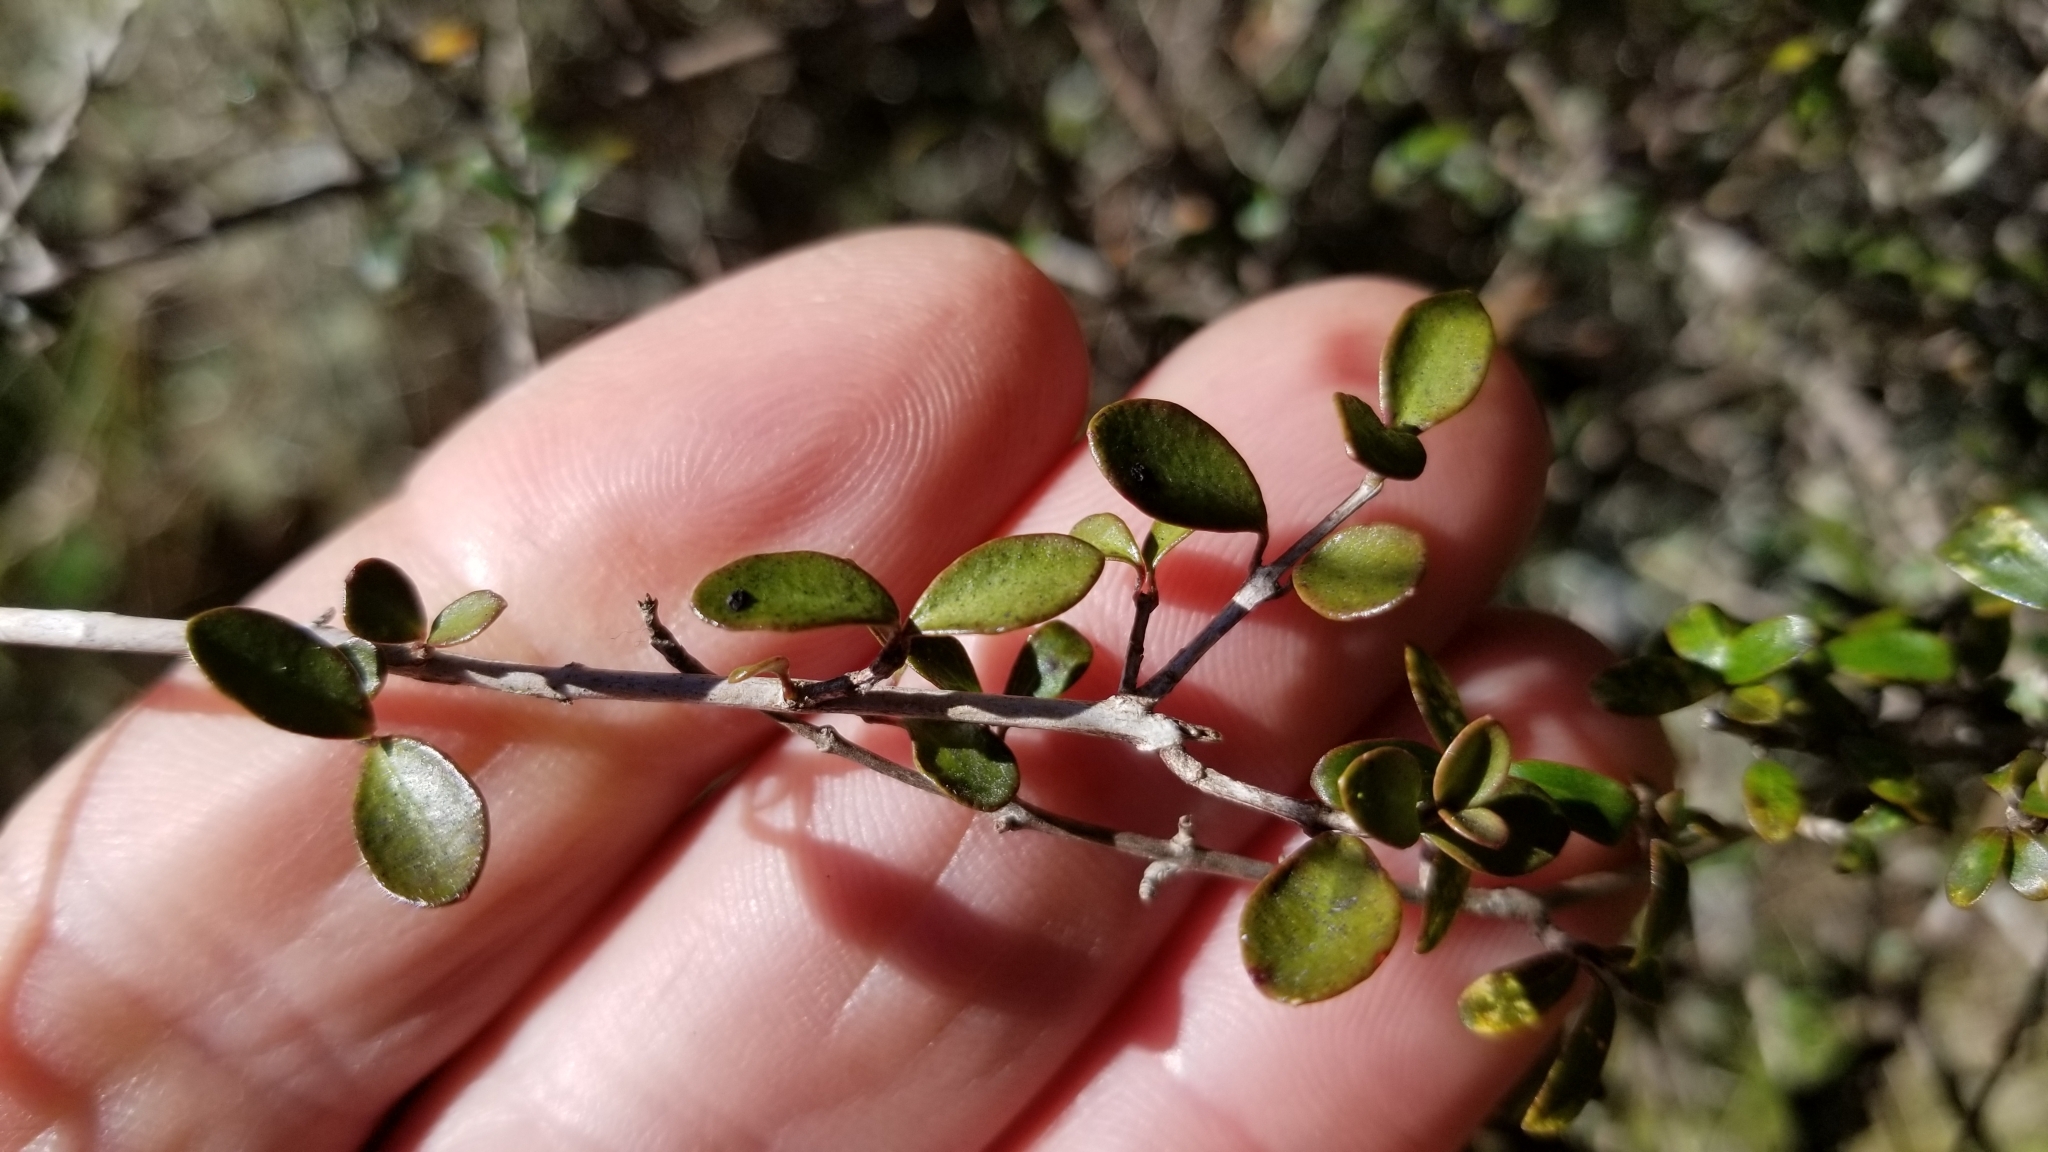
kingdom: Plantae
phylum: Tracheophyta
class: Magnoliopsida
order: Myrtales
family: Myrtaceae
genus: Neomyrtus
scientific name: Neomyrtus pedunculata
